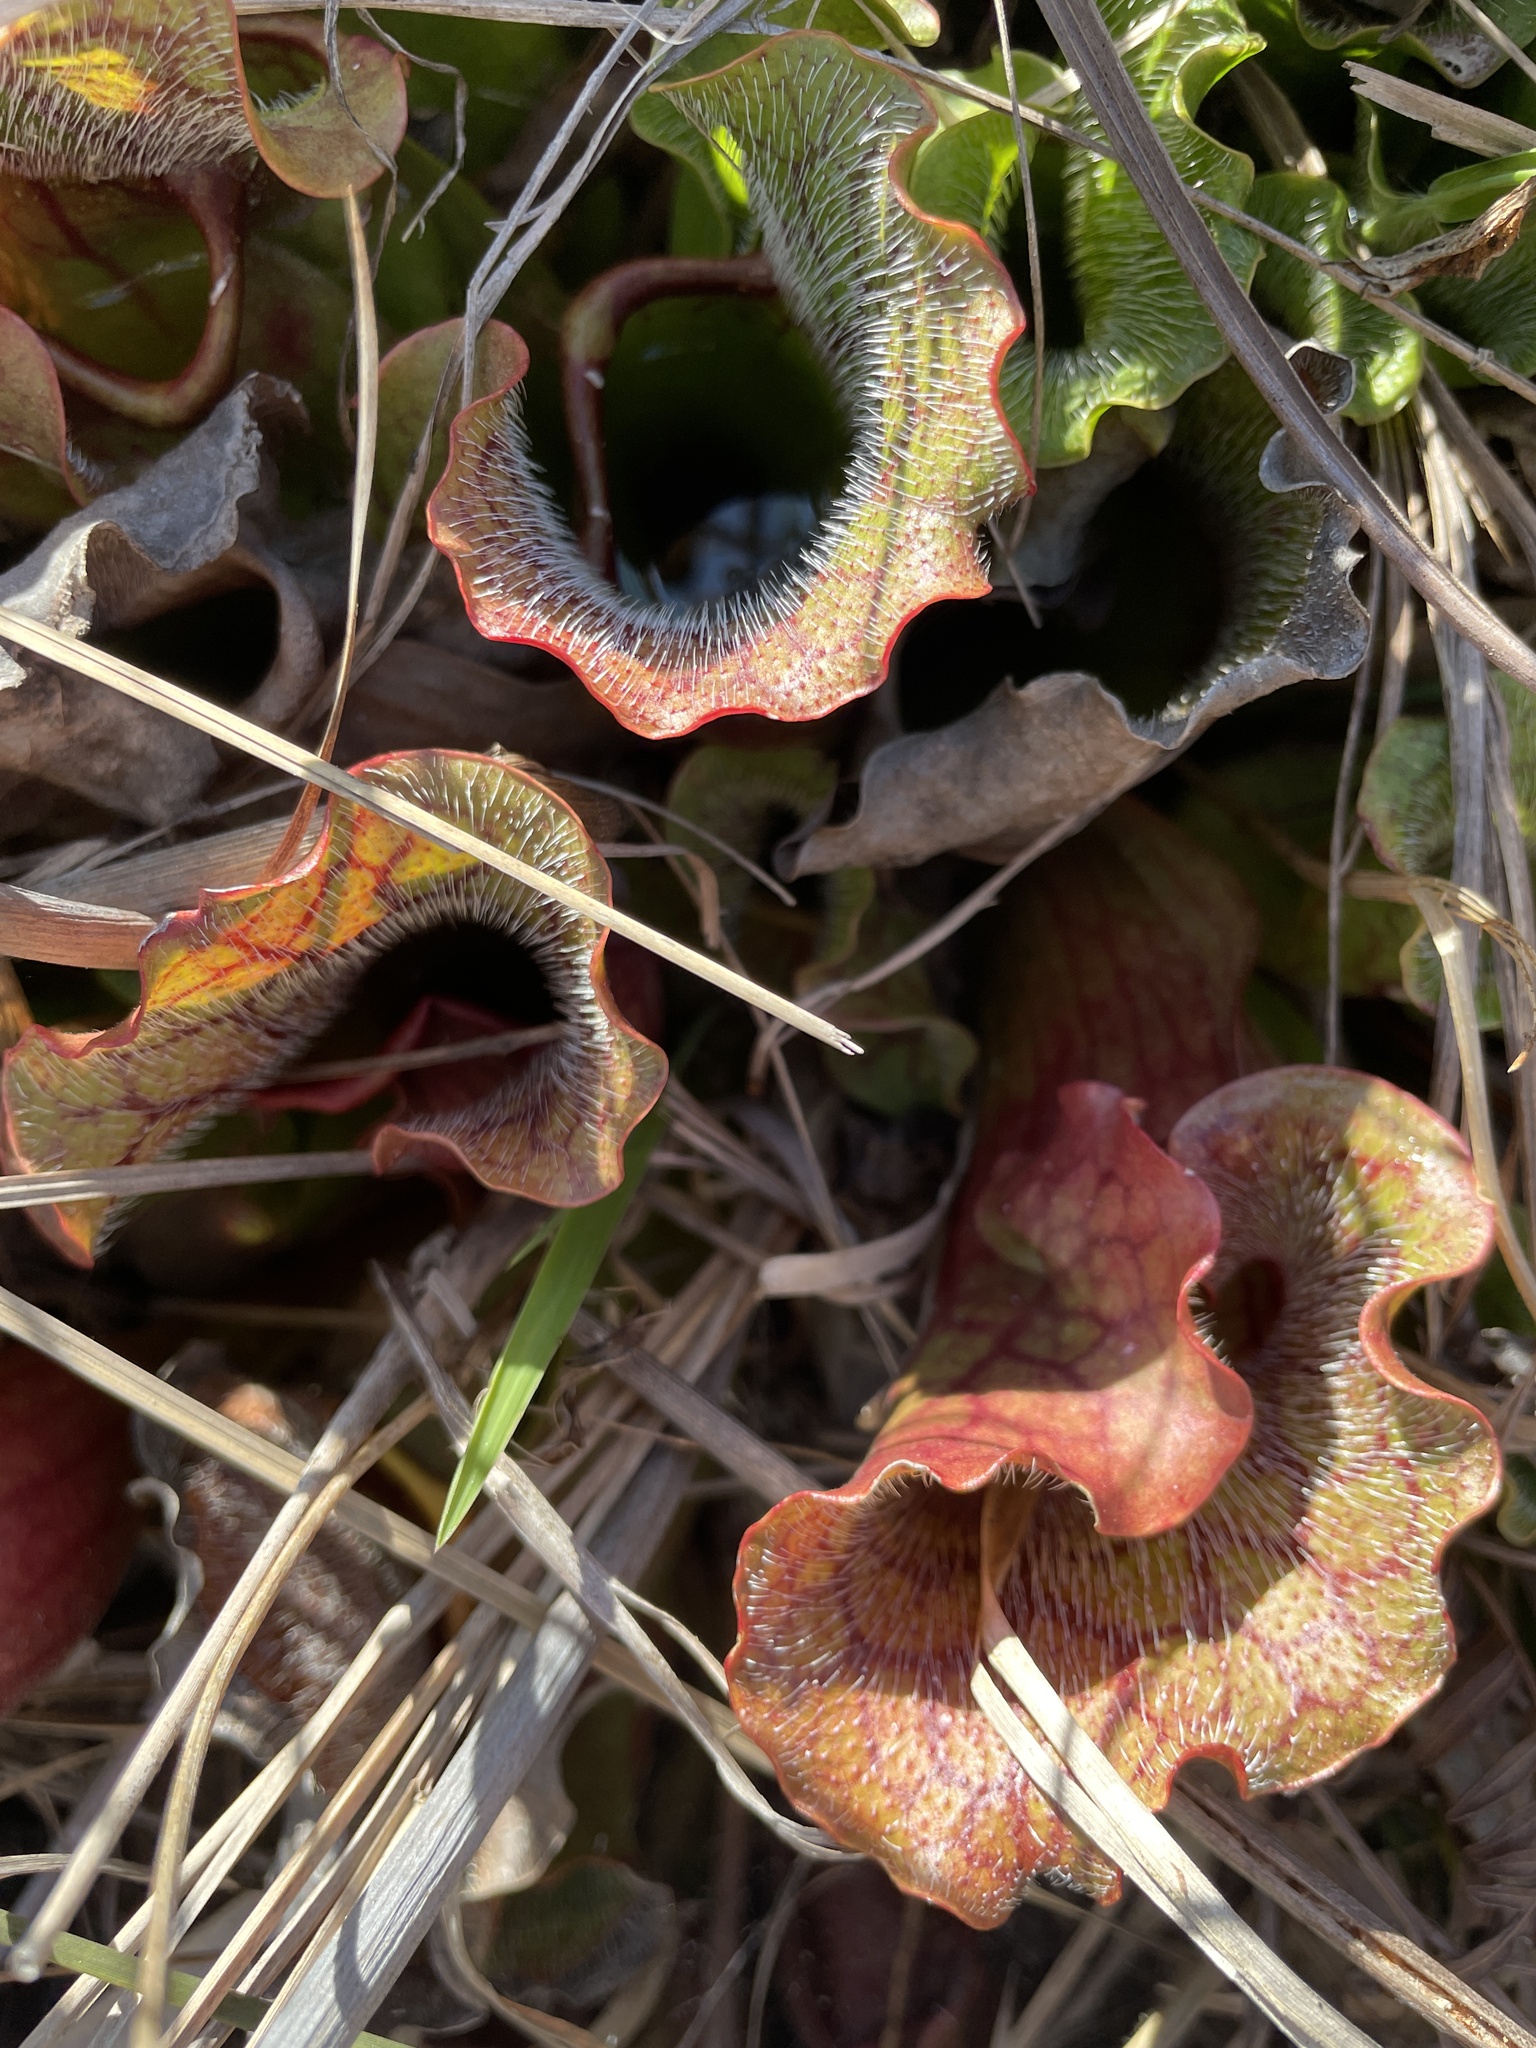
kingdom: Plantae
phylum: Tracheophyta
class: Magnoliopsida
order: Ericales
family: Sarraceniaceae
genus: Sarracenia
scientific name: Sarracenia purpurea
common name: Pitcherplant
